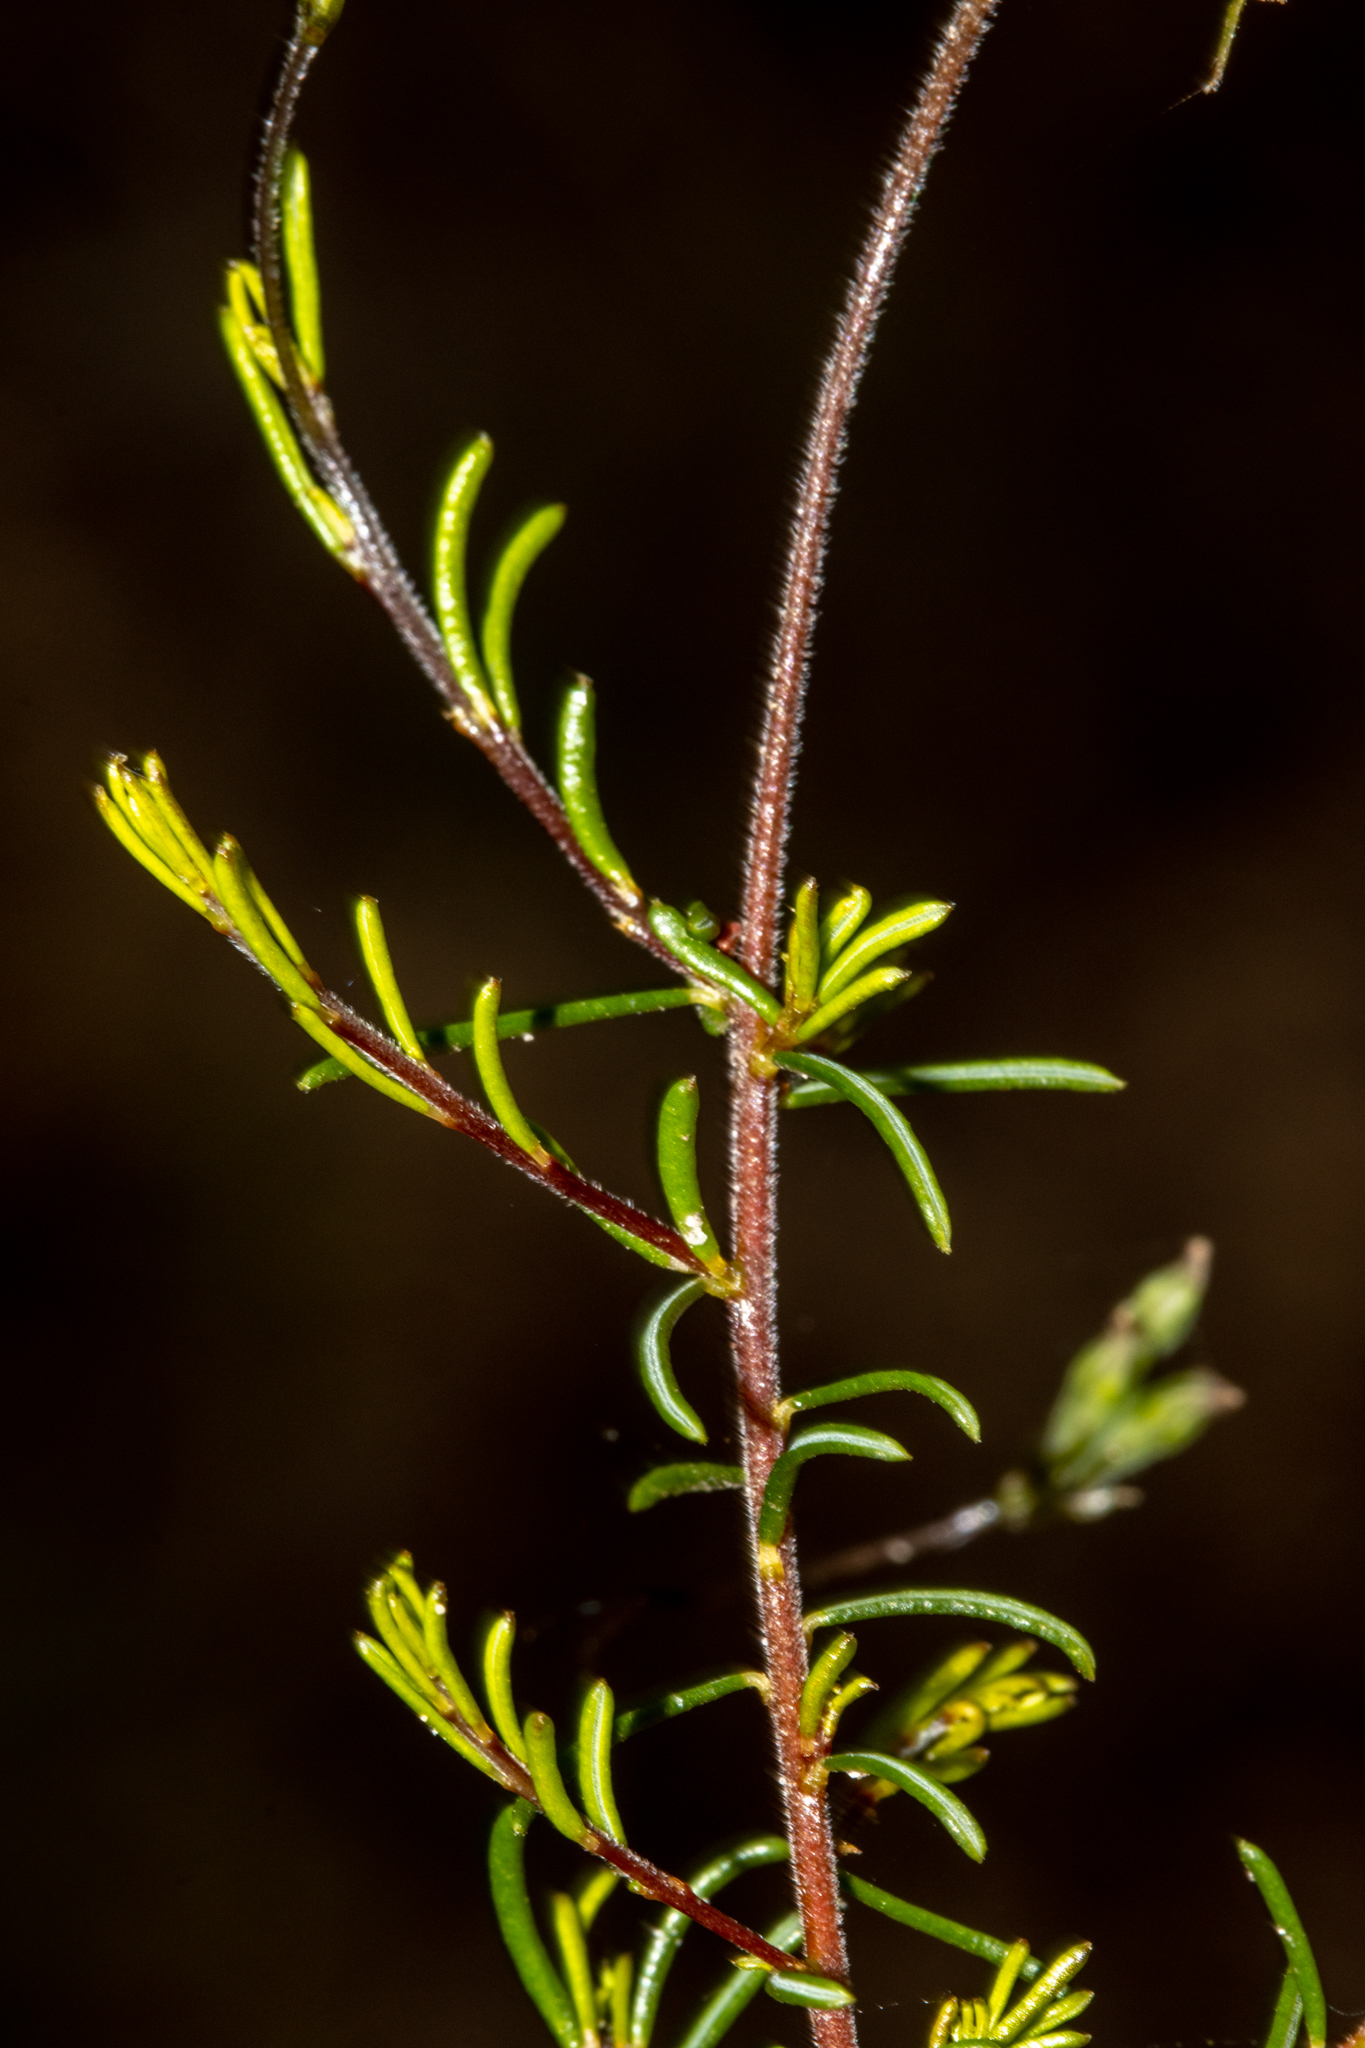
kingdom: Plantae
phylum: Tracheophyta
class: Magnoliopsida
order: Fabales
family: Fabaceae
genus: Dillwynia
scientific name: Dillwynia hispida
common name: Red parrot-pea
